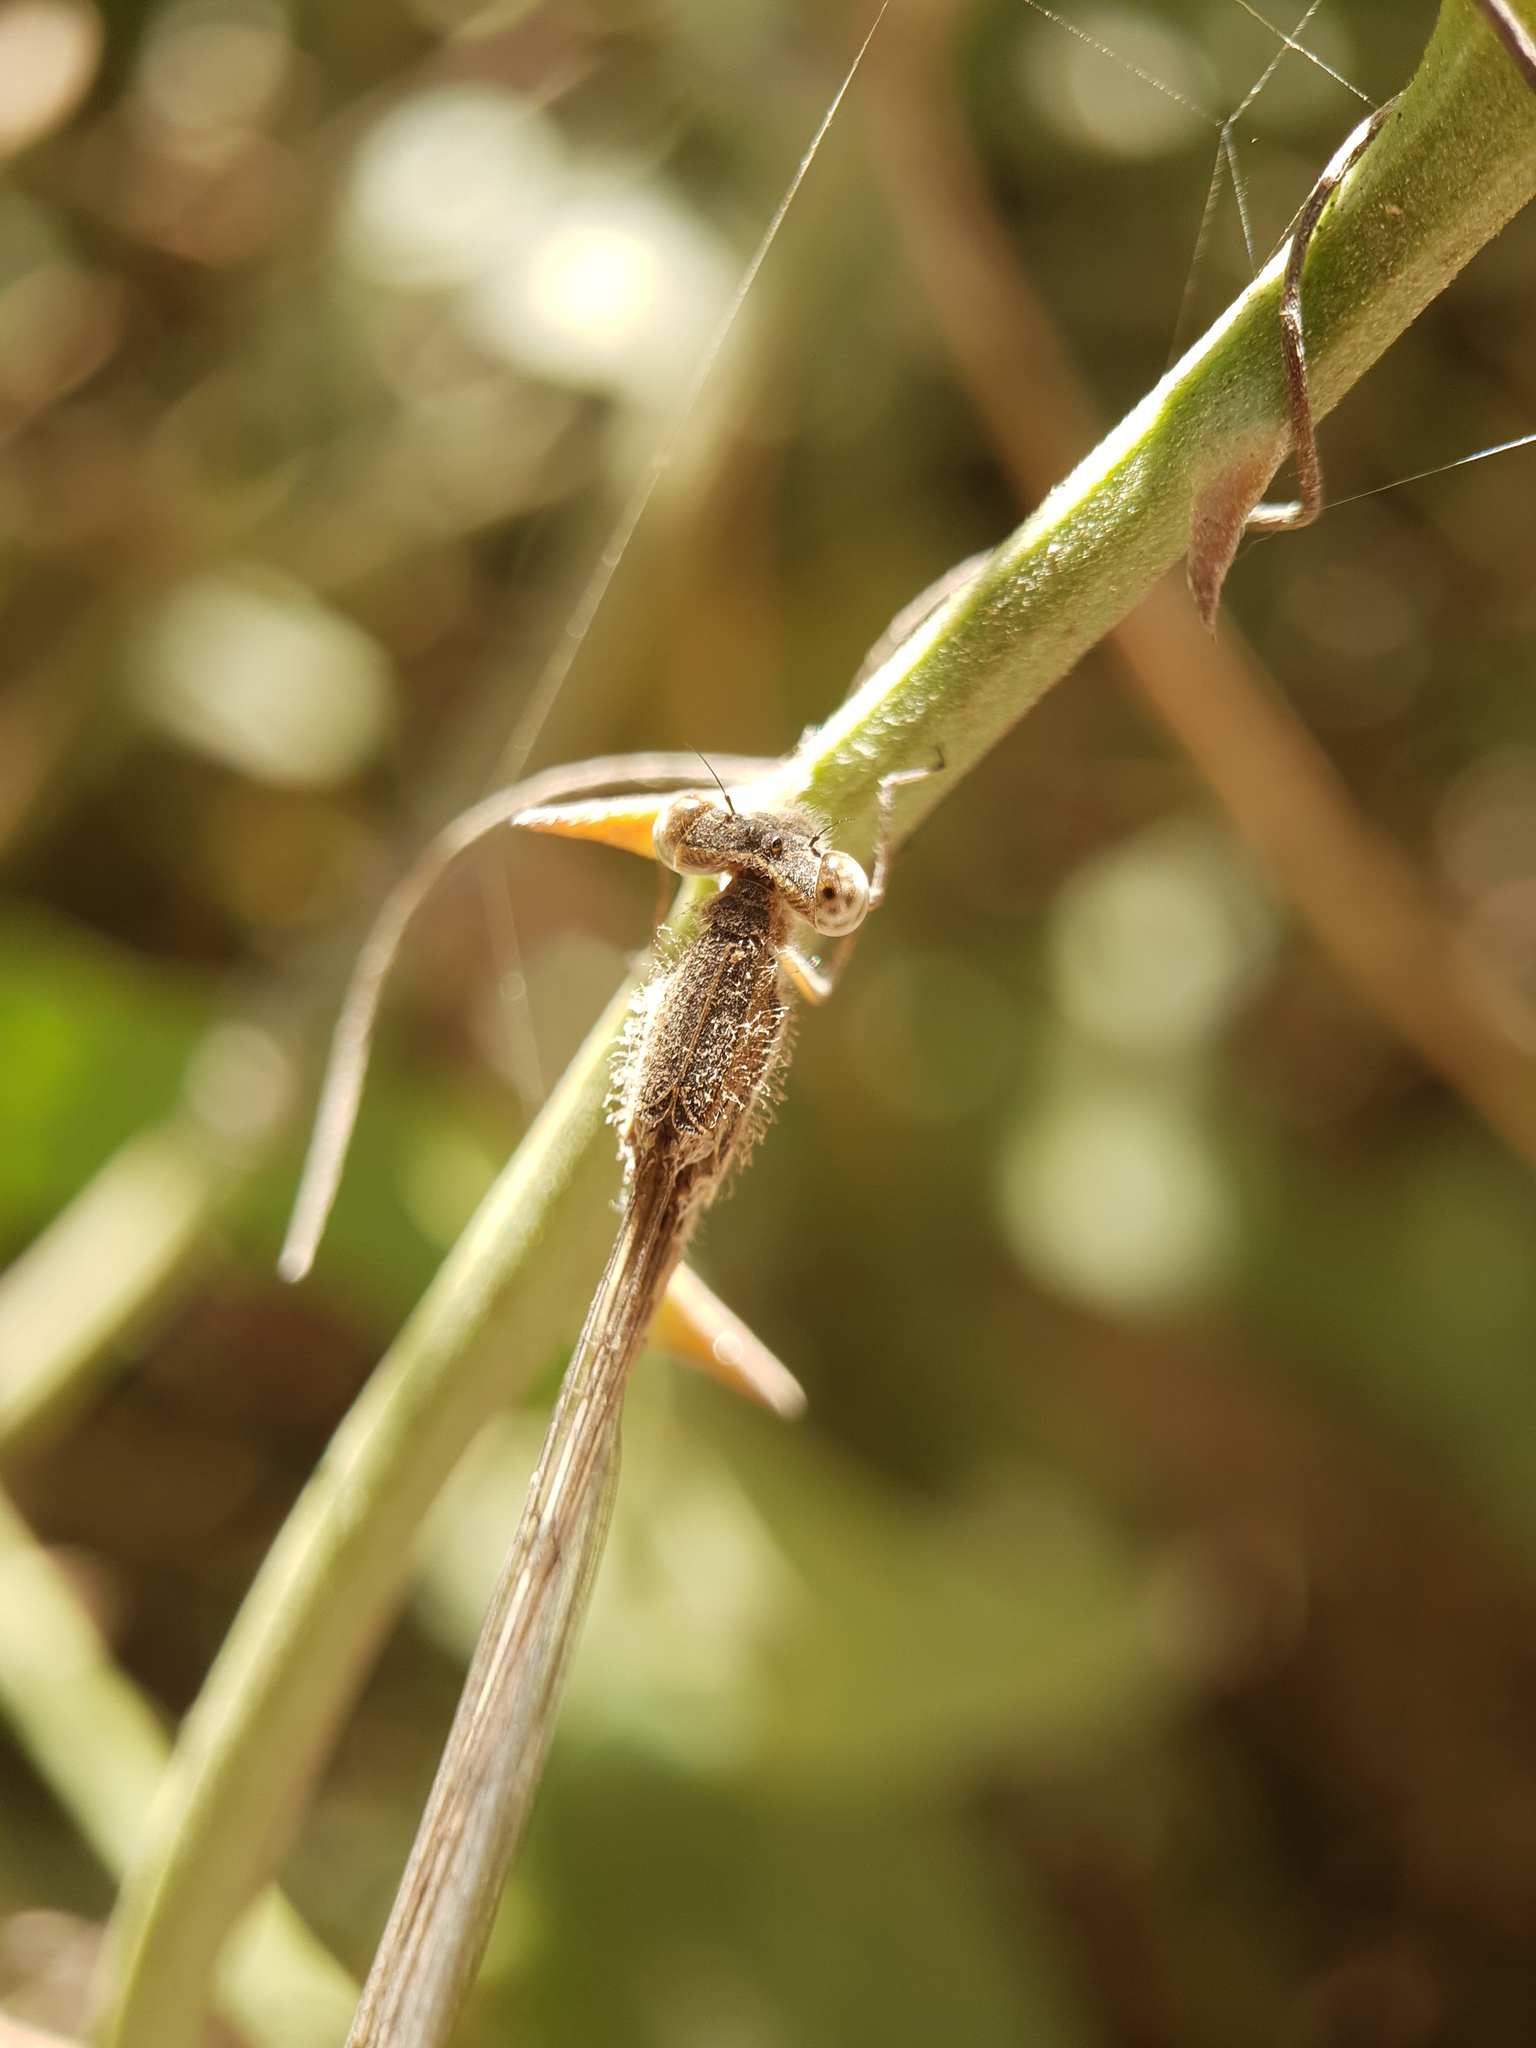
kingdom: Animalia
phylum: Arthropoda
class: Insecta
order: Odonata
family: Lestidae
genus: Sympecma
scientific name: Sympecma fusca
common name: Common winter damsel
